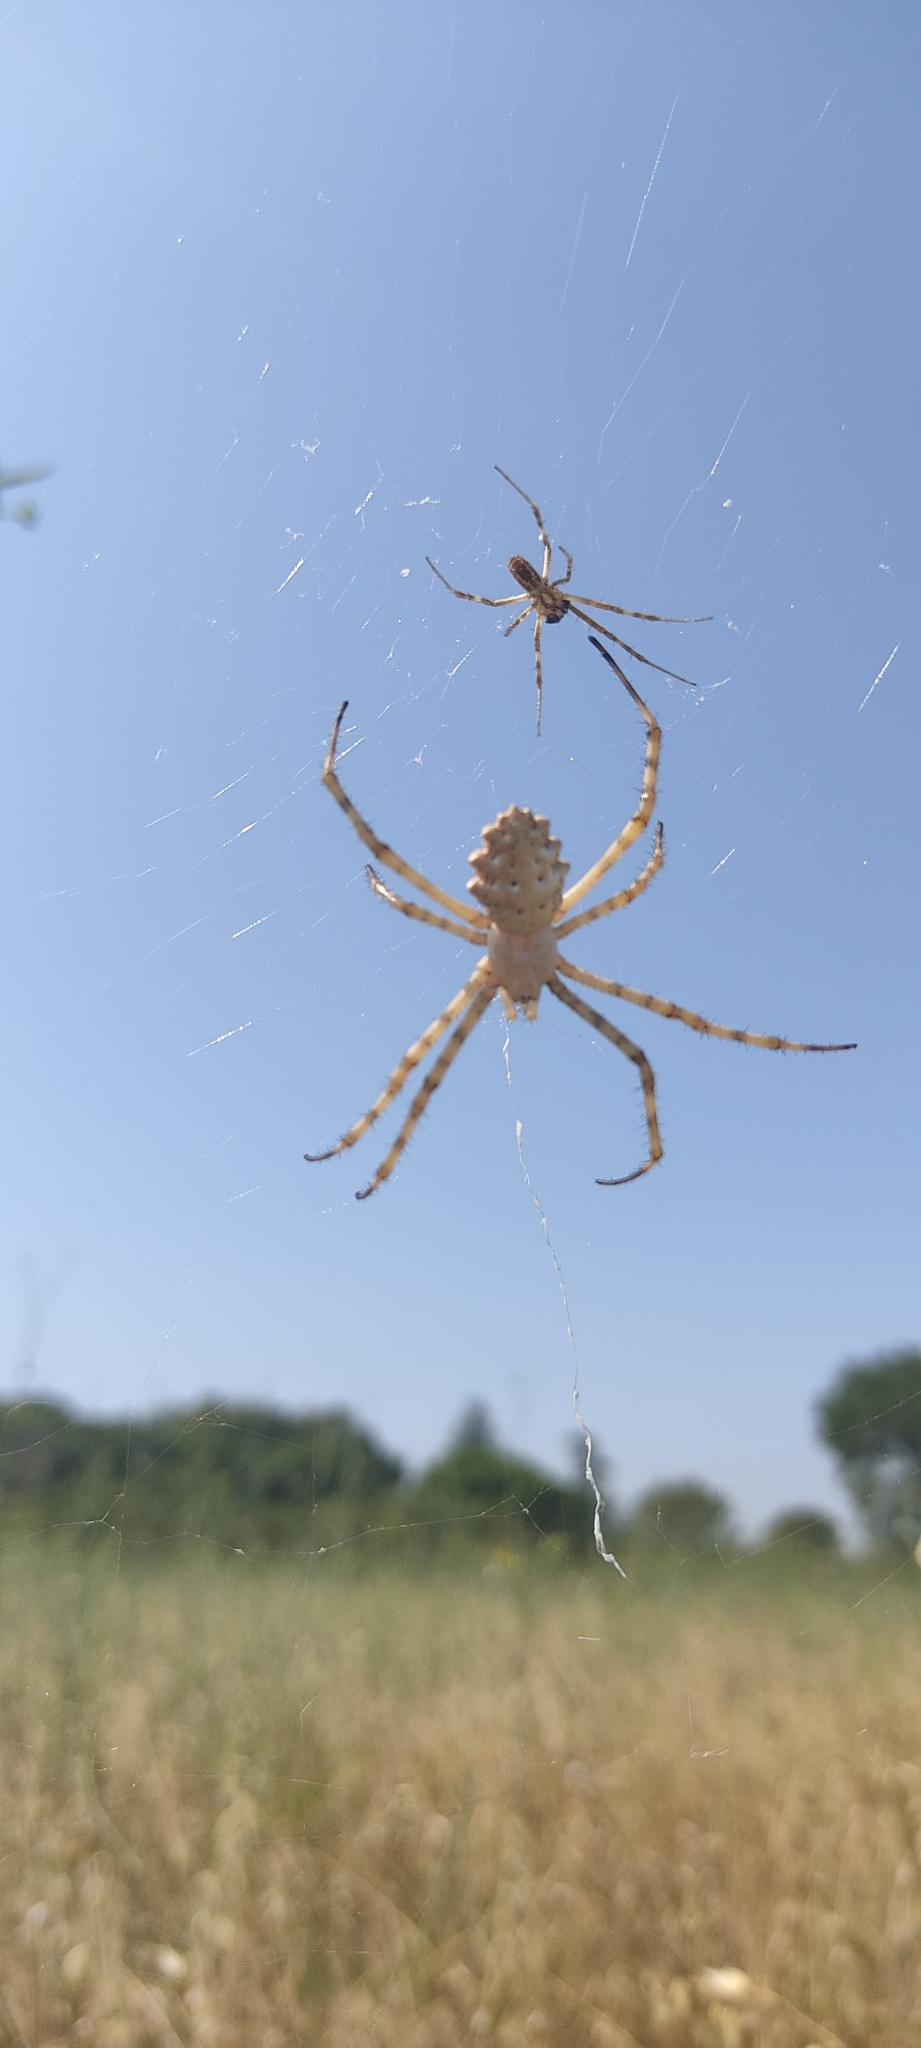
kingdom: Animalia
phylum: Arthropoda
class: Arachnida
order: Araneae
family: Araneidae
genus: Argiope
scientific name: Argiope lobata
